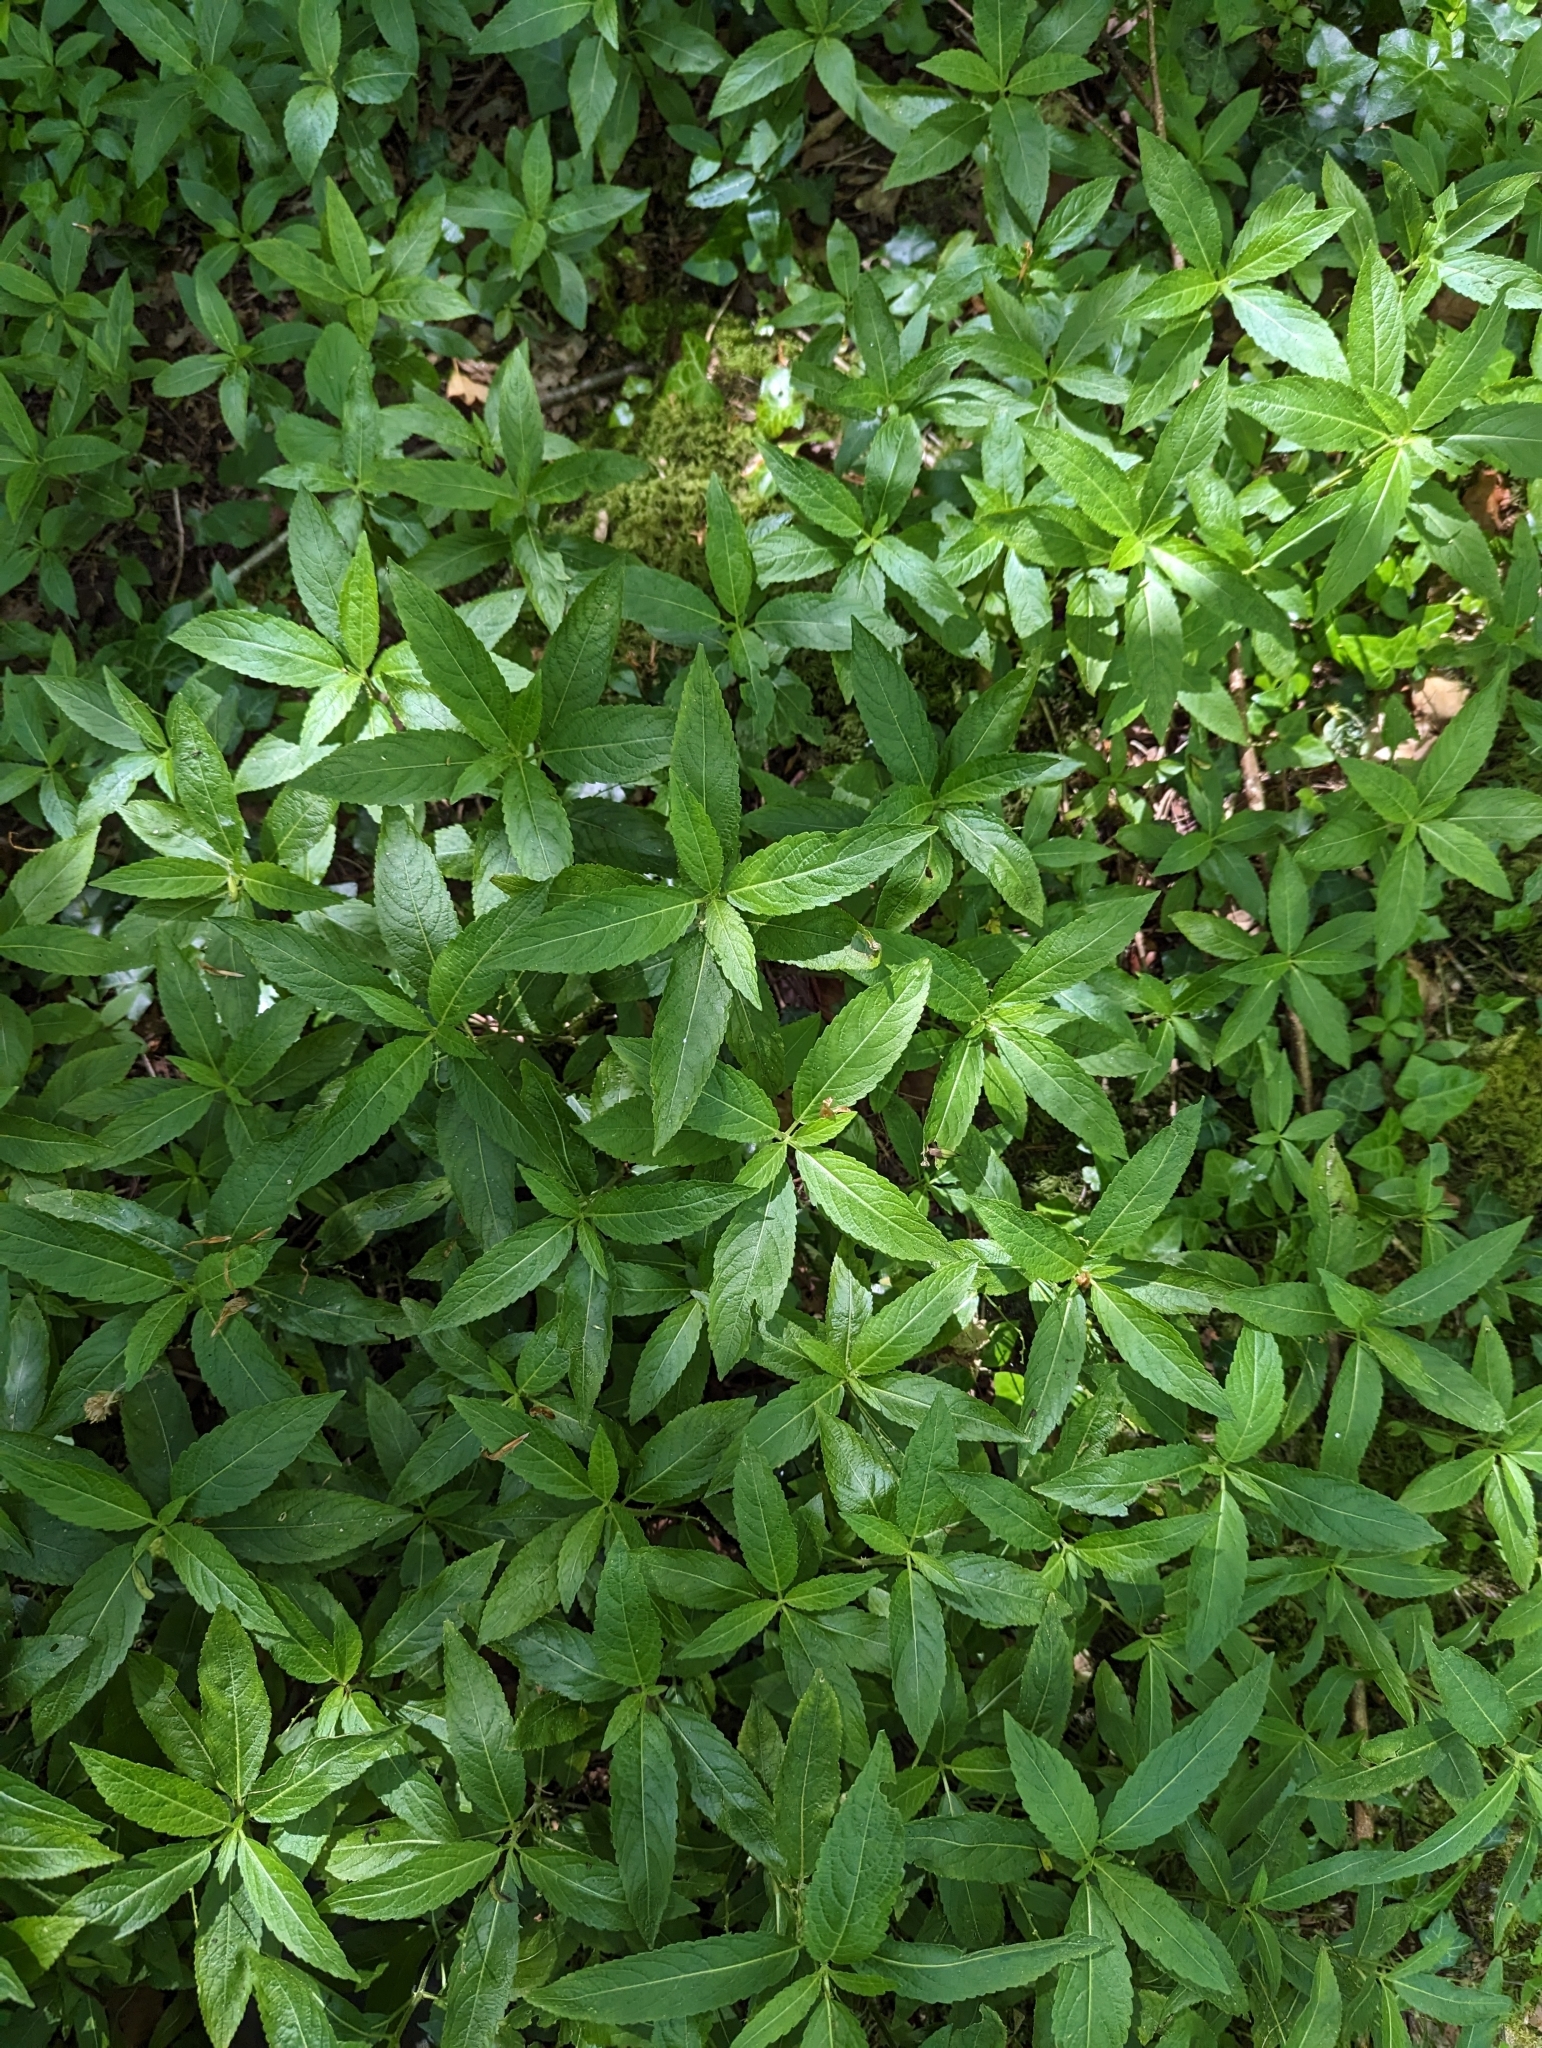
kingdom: Plantae
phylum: Tracheophyta
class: Magnoliopsida
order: Malpighiales
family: Euphorbiaceae
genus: Mercurialis
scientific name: Mercurialis perennis
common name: Dog mercury
